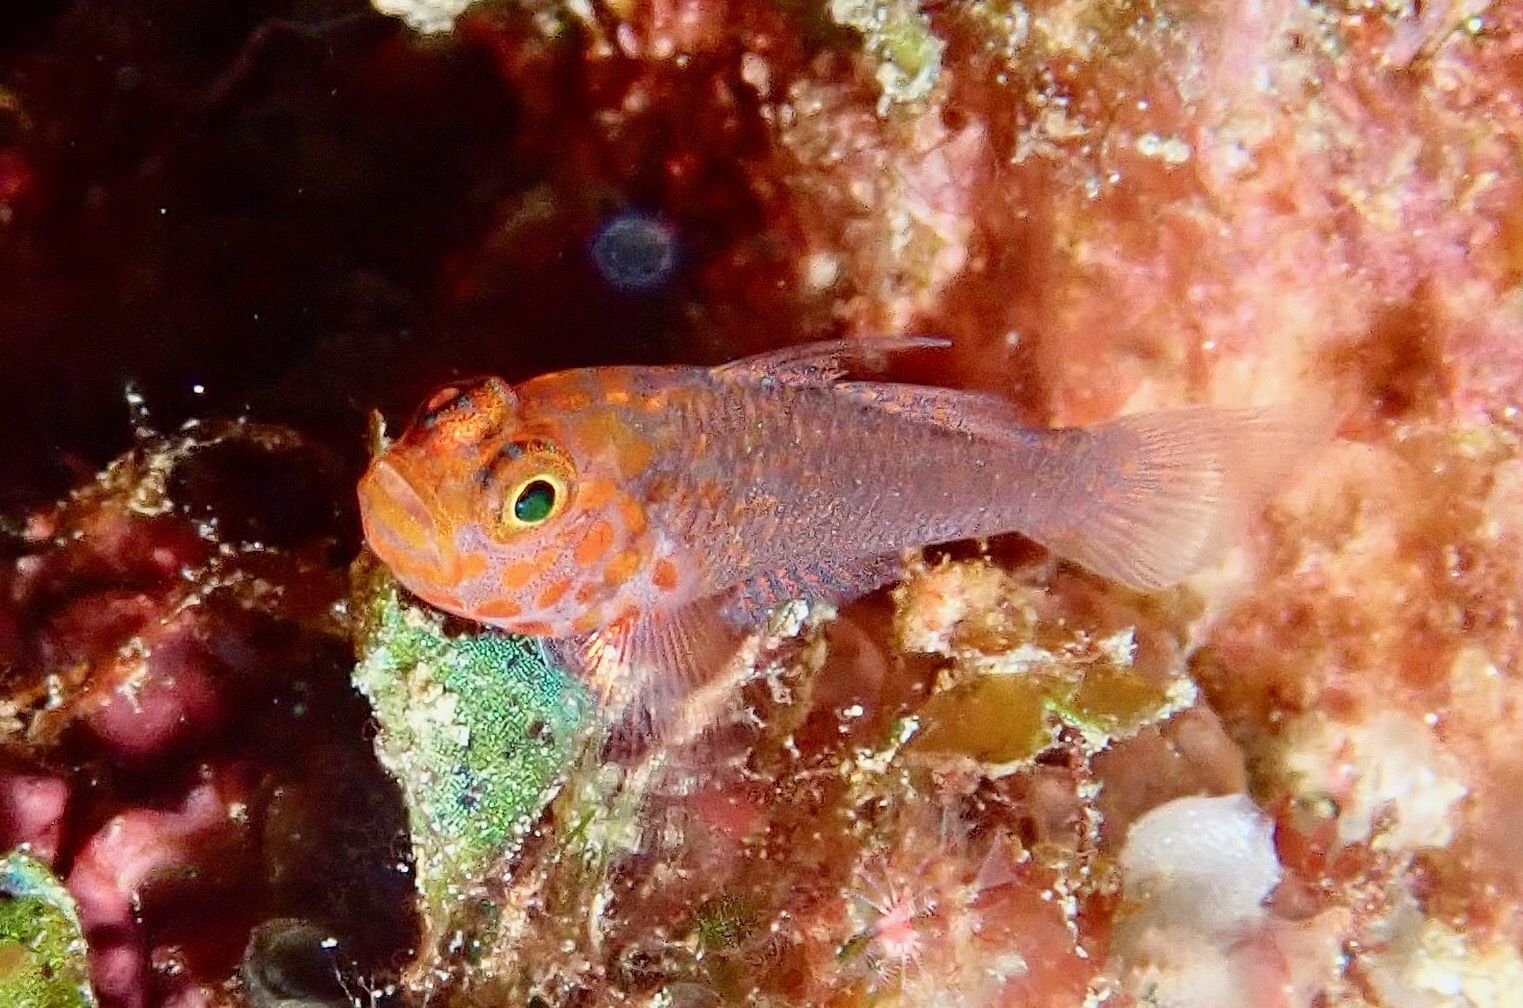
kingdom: Animalia
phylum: Chordata
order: Perciformes
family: Gobiidae
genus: Trimma
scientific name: Trimma fangi
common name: Fang's pygmy goby
